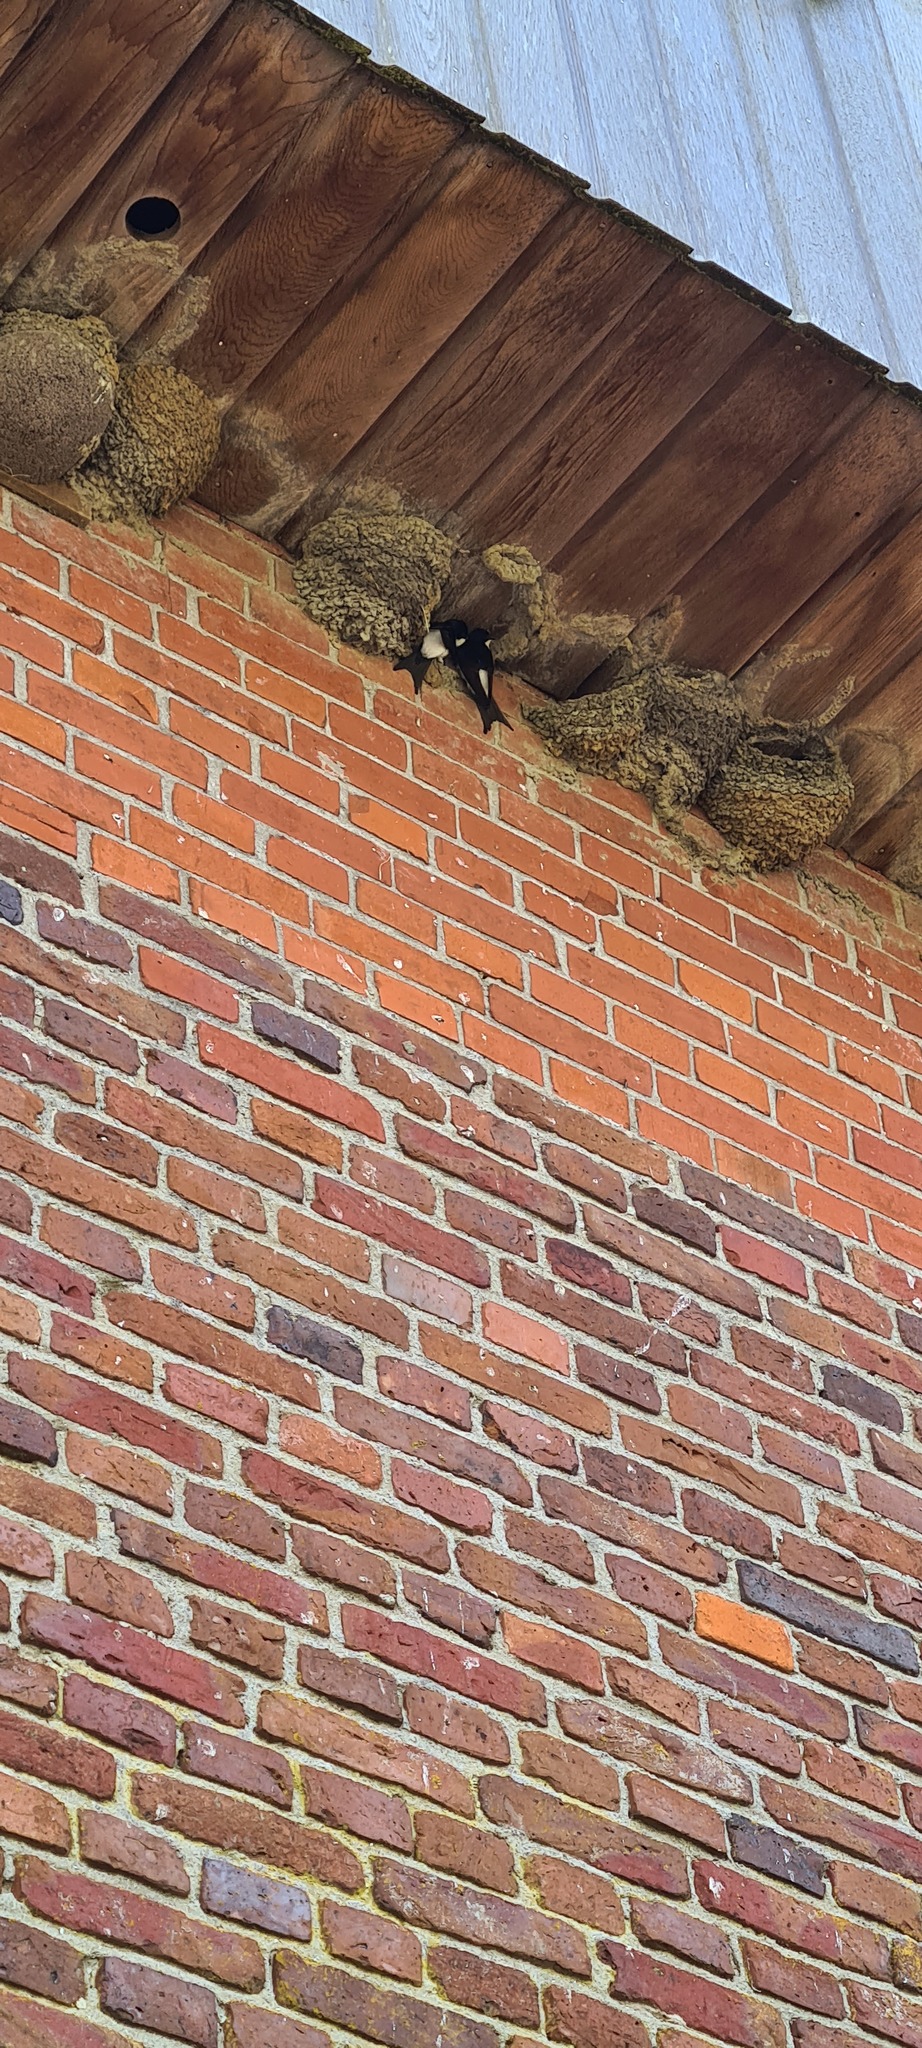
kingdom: Animalia
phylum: Chordata
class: Aves
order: Passeriformes
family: Hirundinidae
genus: Delichon
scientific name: Delichon urbicum
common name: Common house martin
